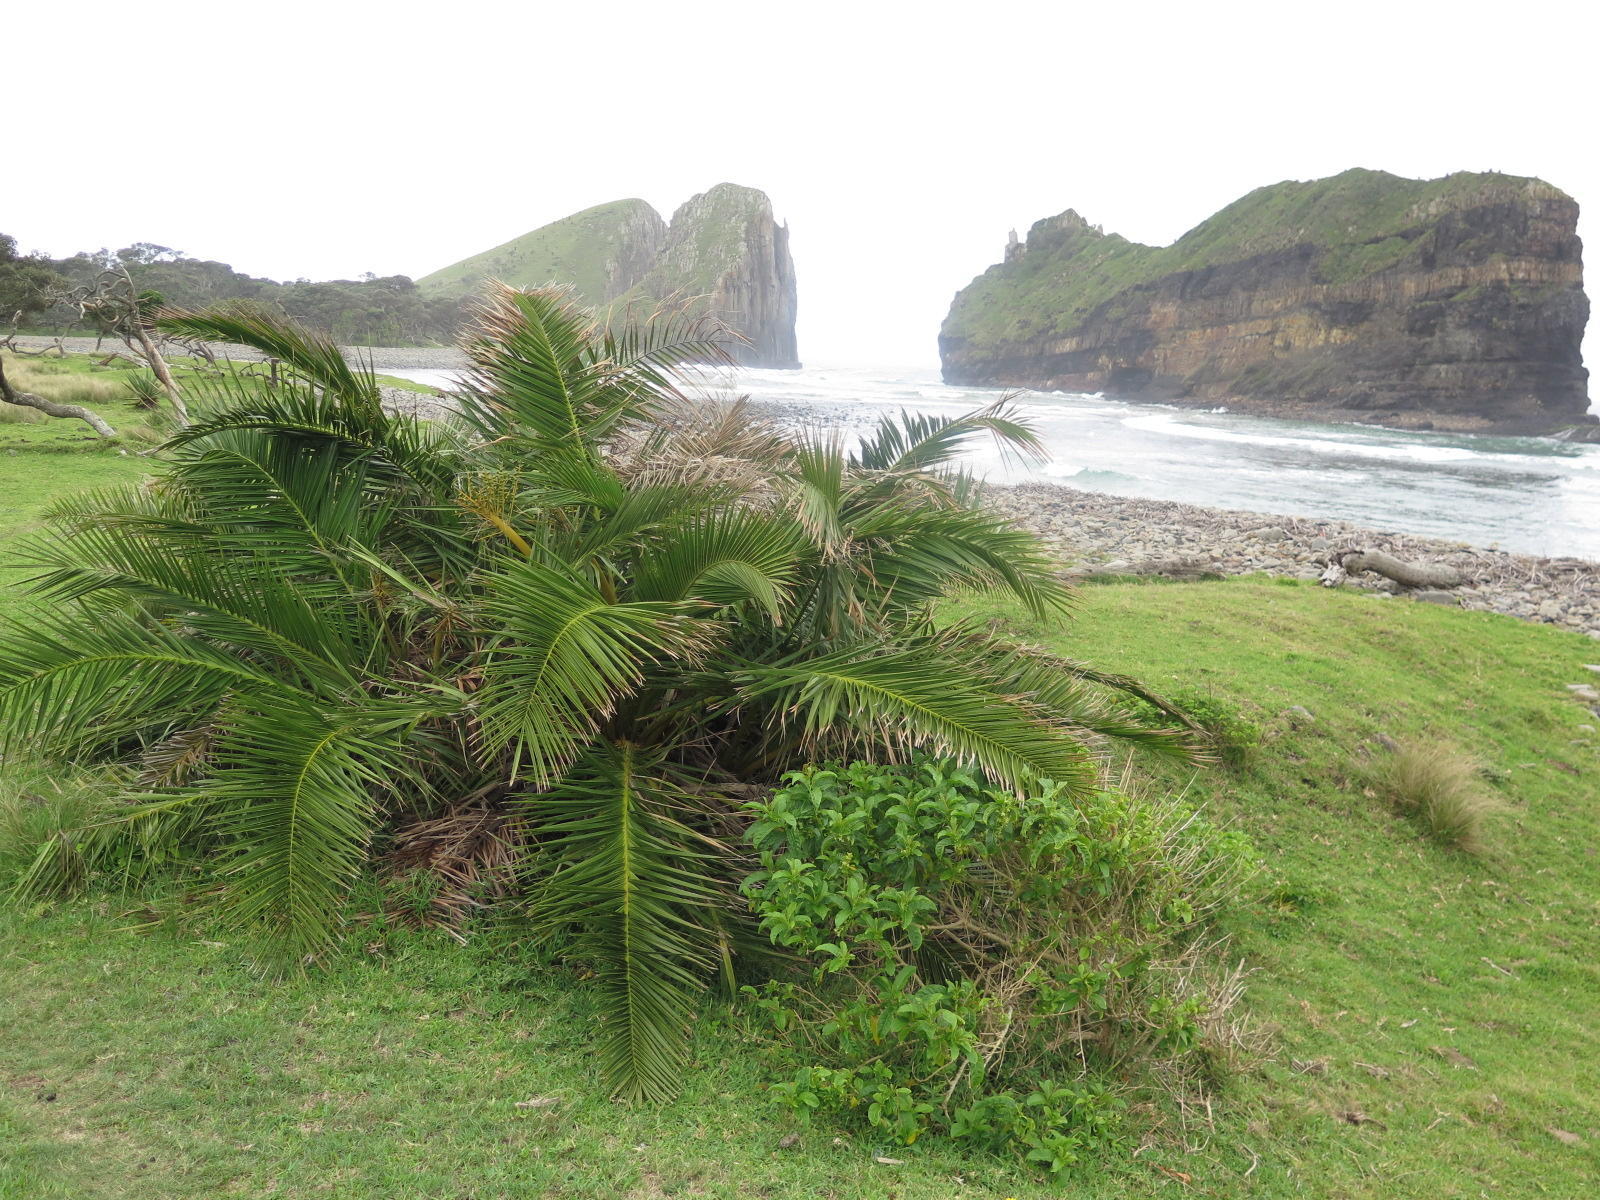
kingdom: Plantae
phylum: Tracheophyta
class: Liliopsida
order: Arecales
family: Arecaceae
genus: Phoenix
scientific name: Phoenix reclinata
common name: Senegal date palm
